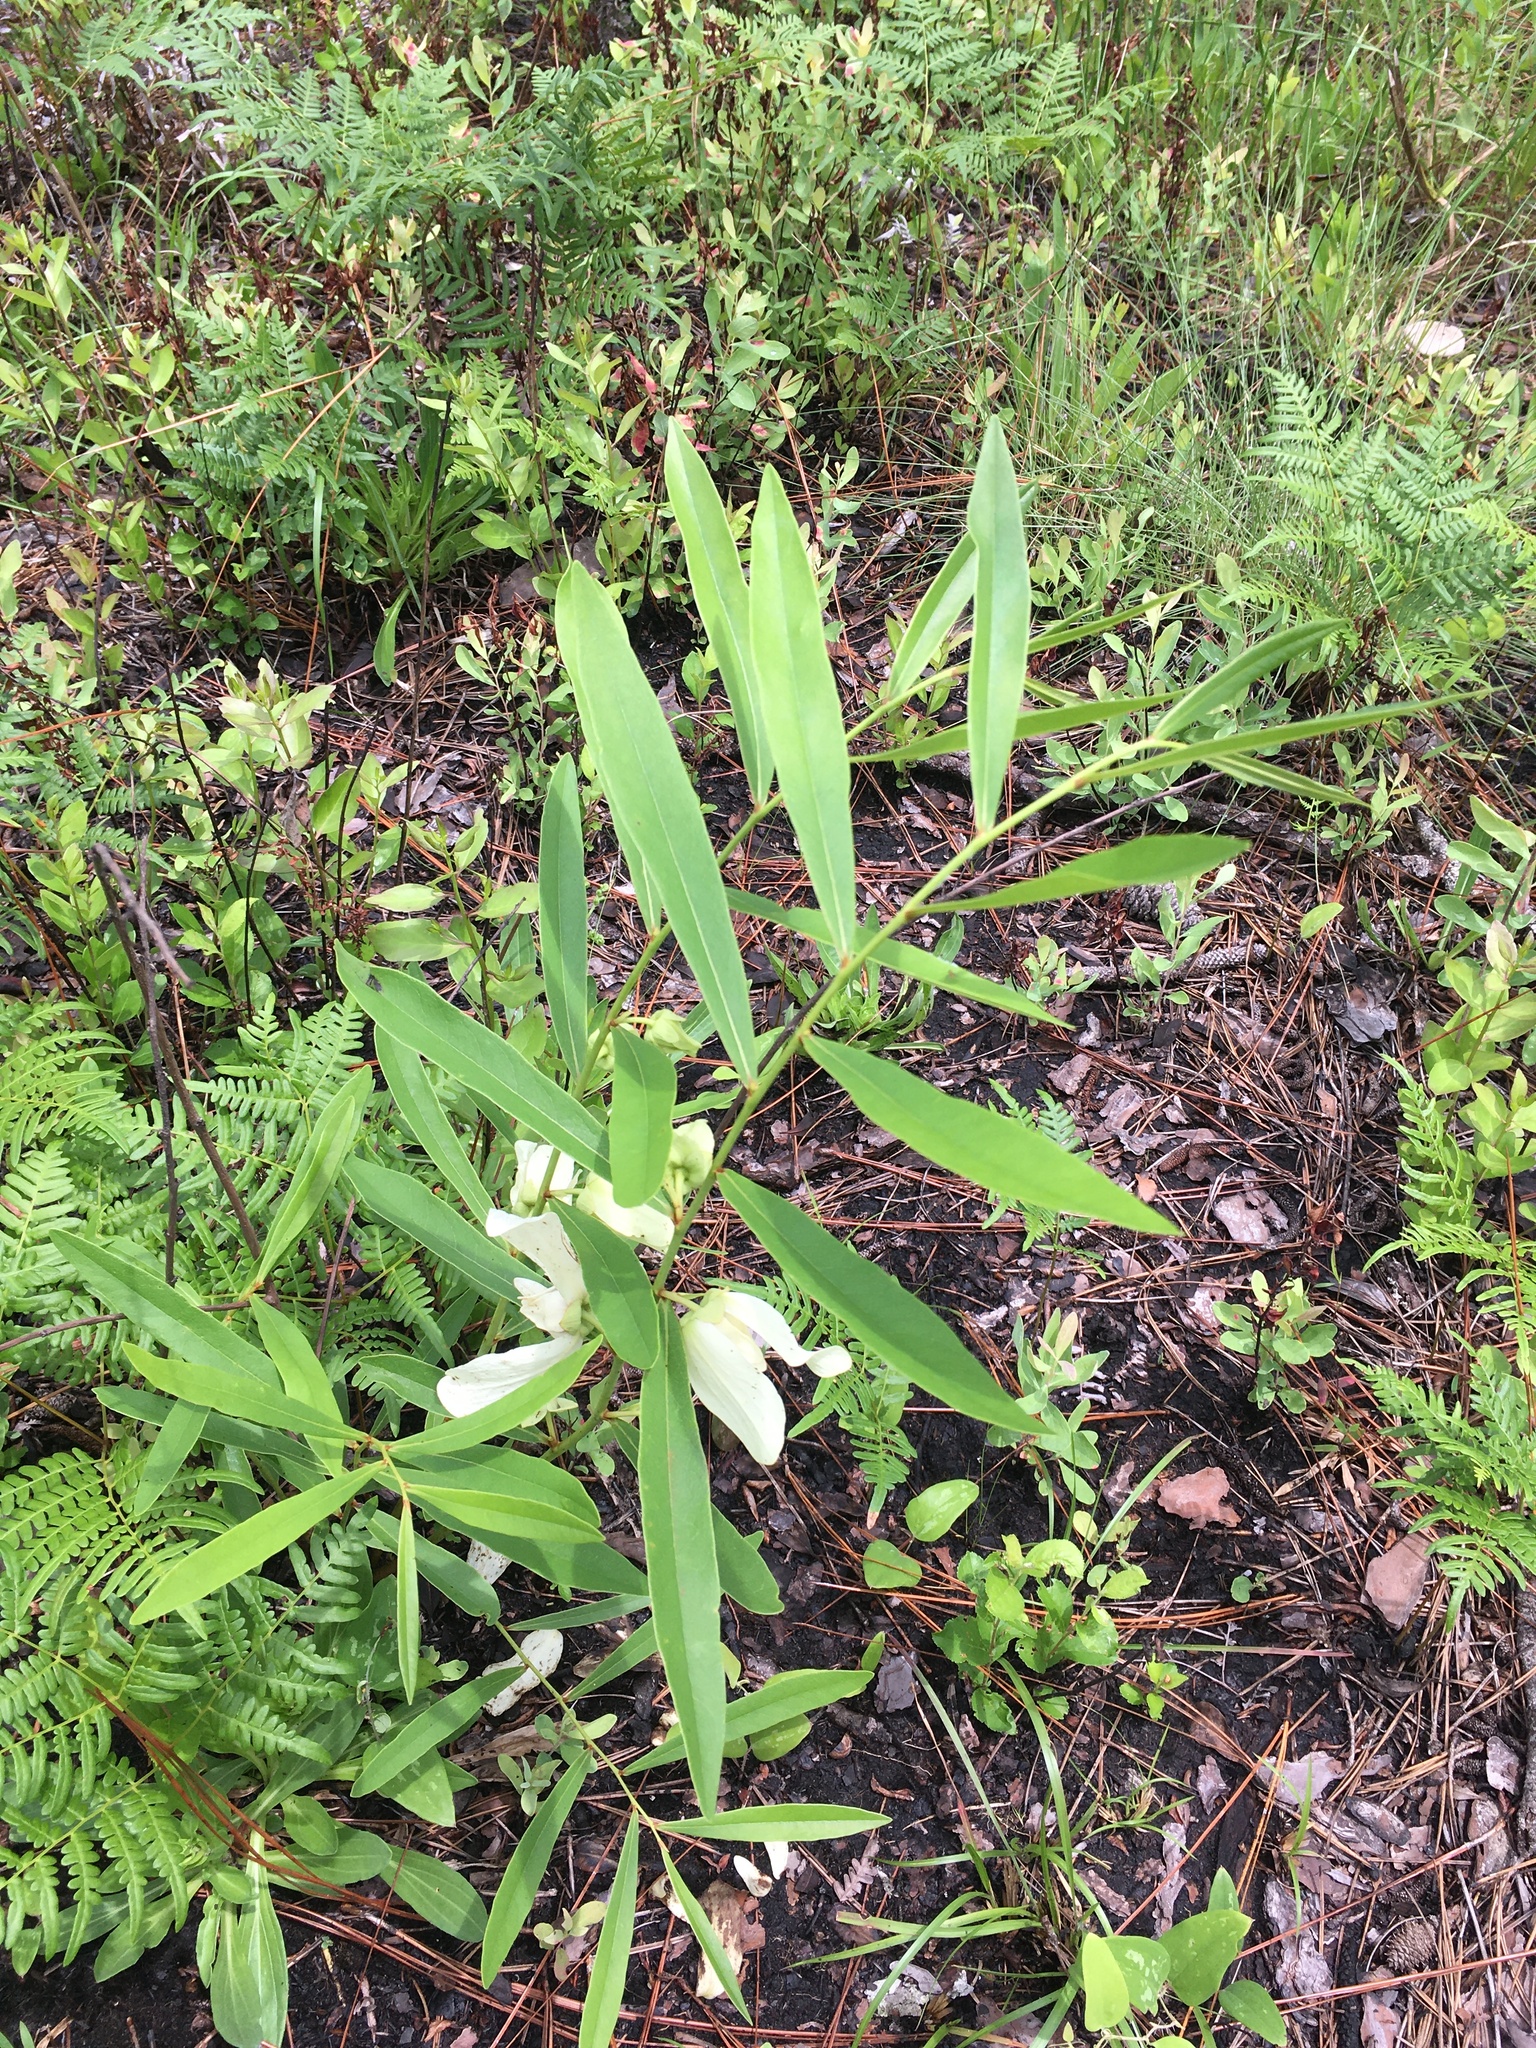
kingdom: Plantae
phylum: Tracheophyta
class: Magnoliopsida
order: Magnoliales
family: Annonaceae
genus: Asimina
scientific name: Asimina longifolia
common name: Polecatbush
